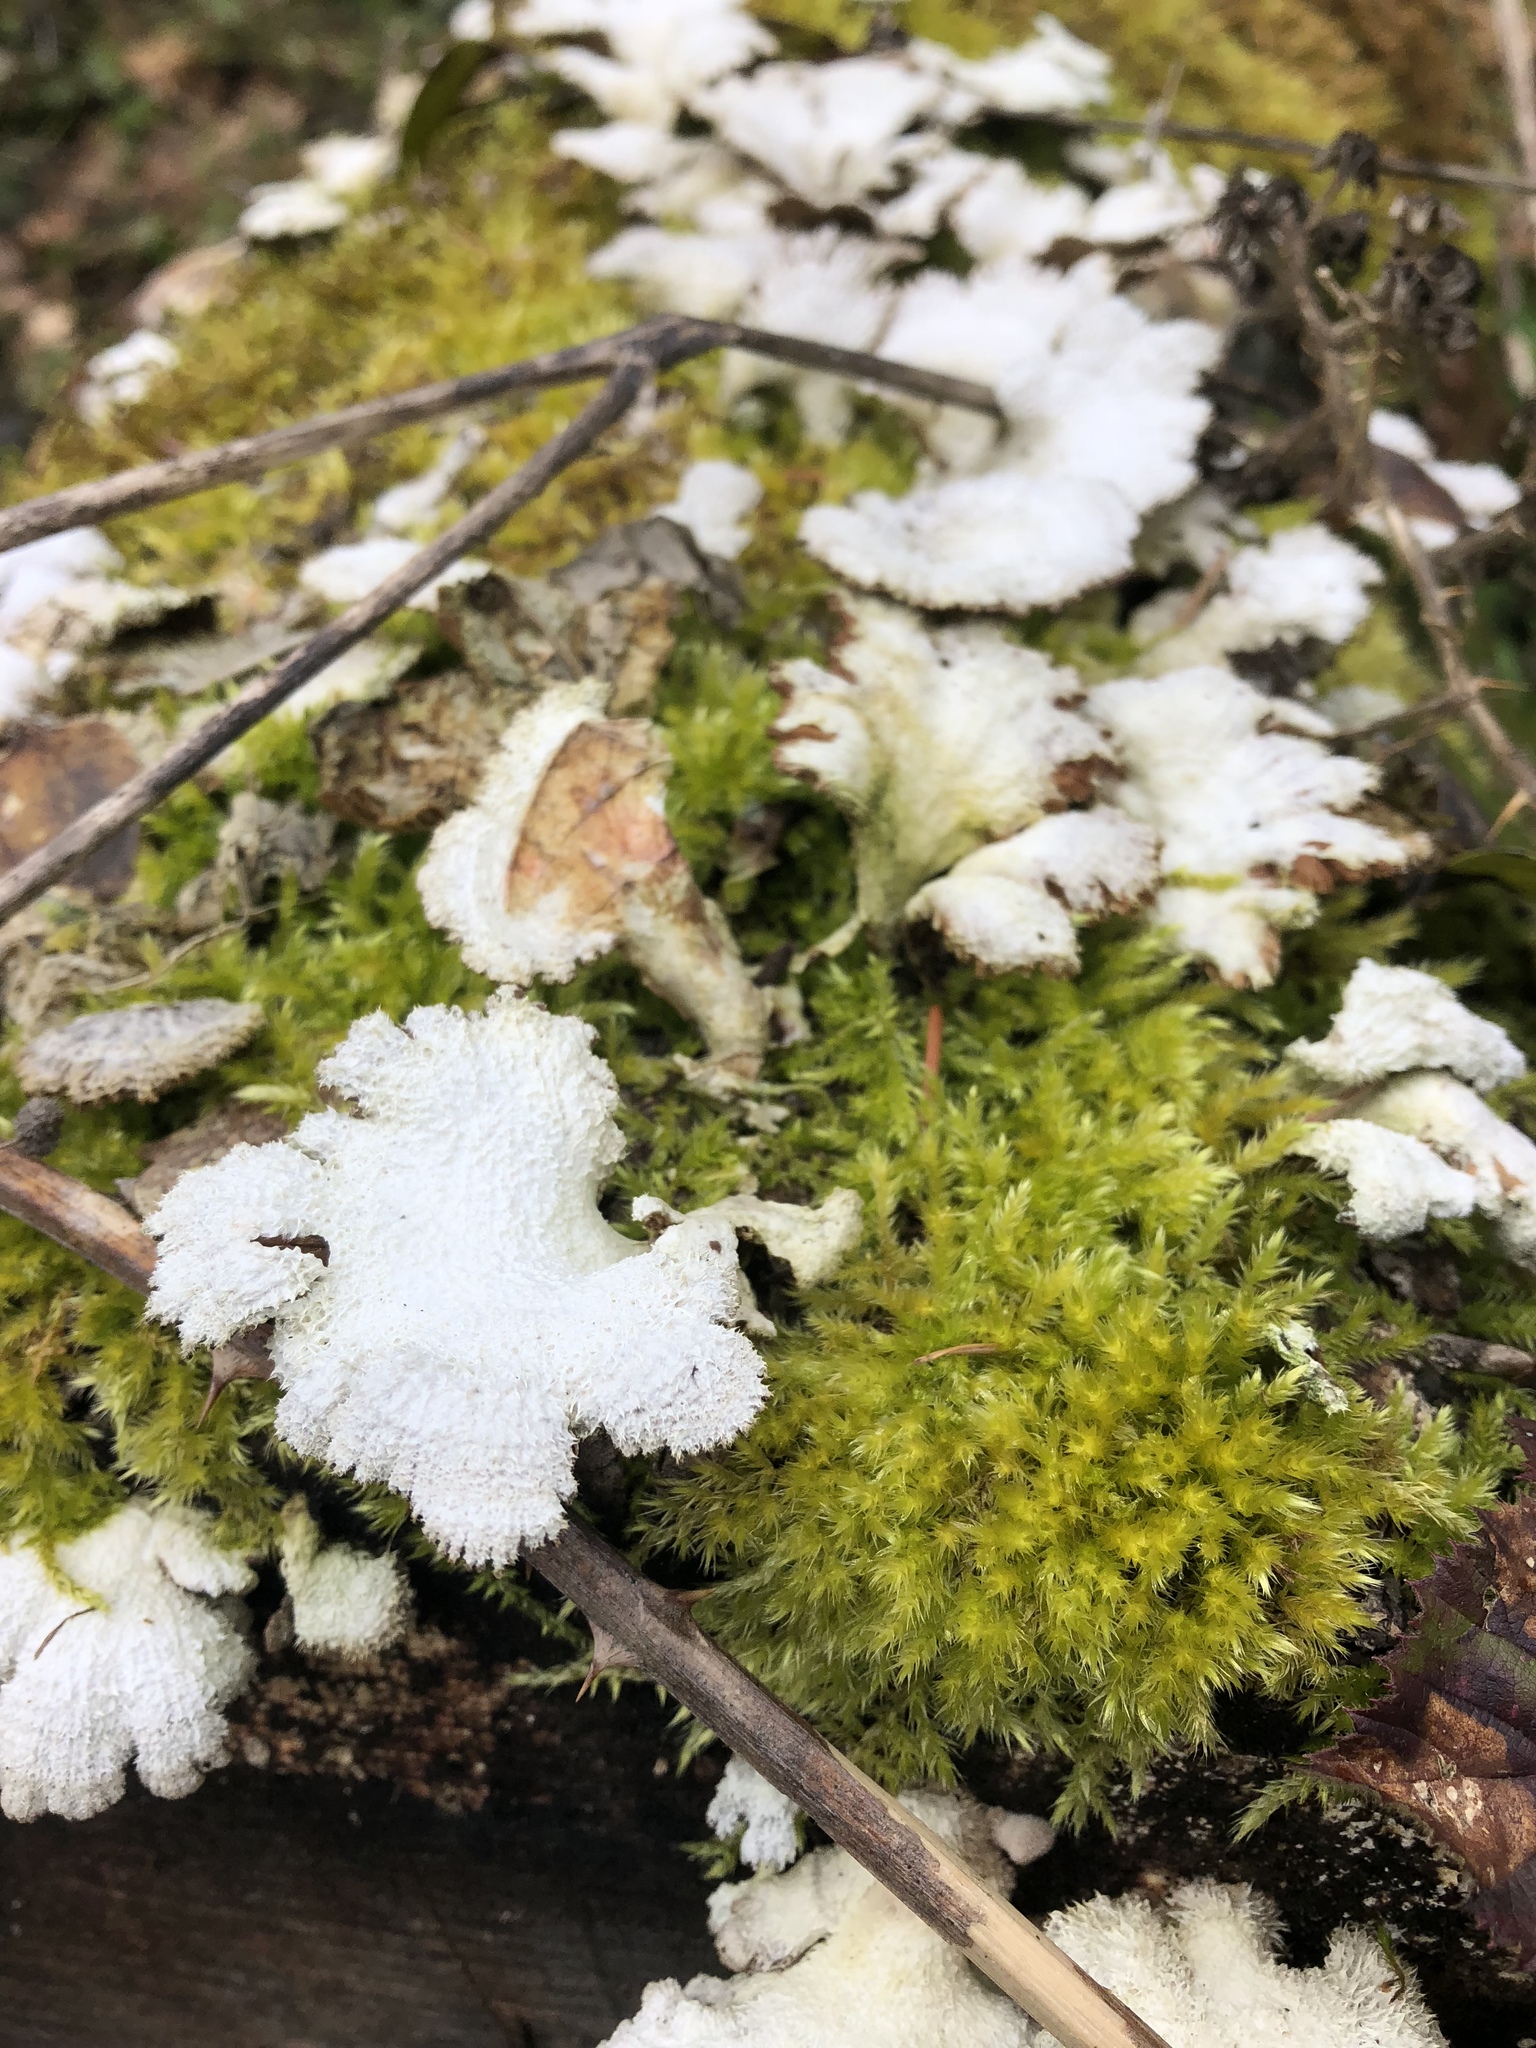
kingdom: Fungi
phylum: Basidiomycota
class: Agaricomycetes
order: Agaricales
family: Schizophyllaceae
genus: Schizophyllum
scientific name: Schizophyllum commune
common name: Common porecrust
